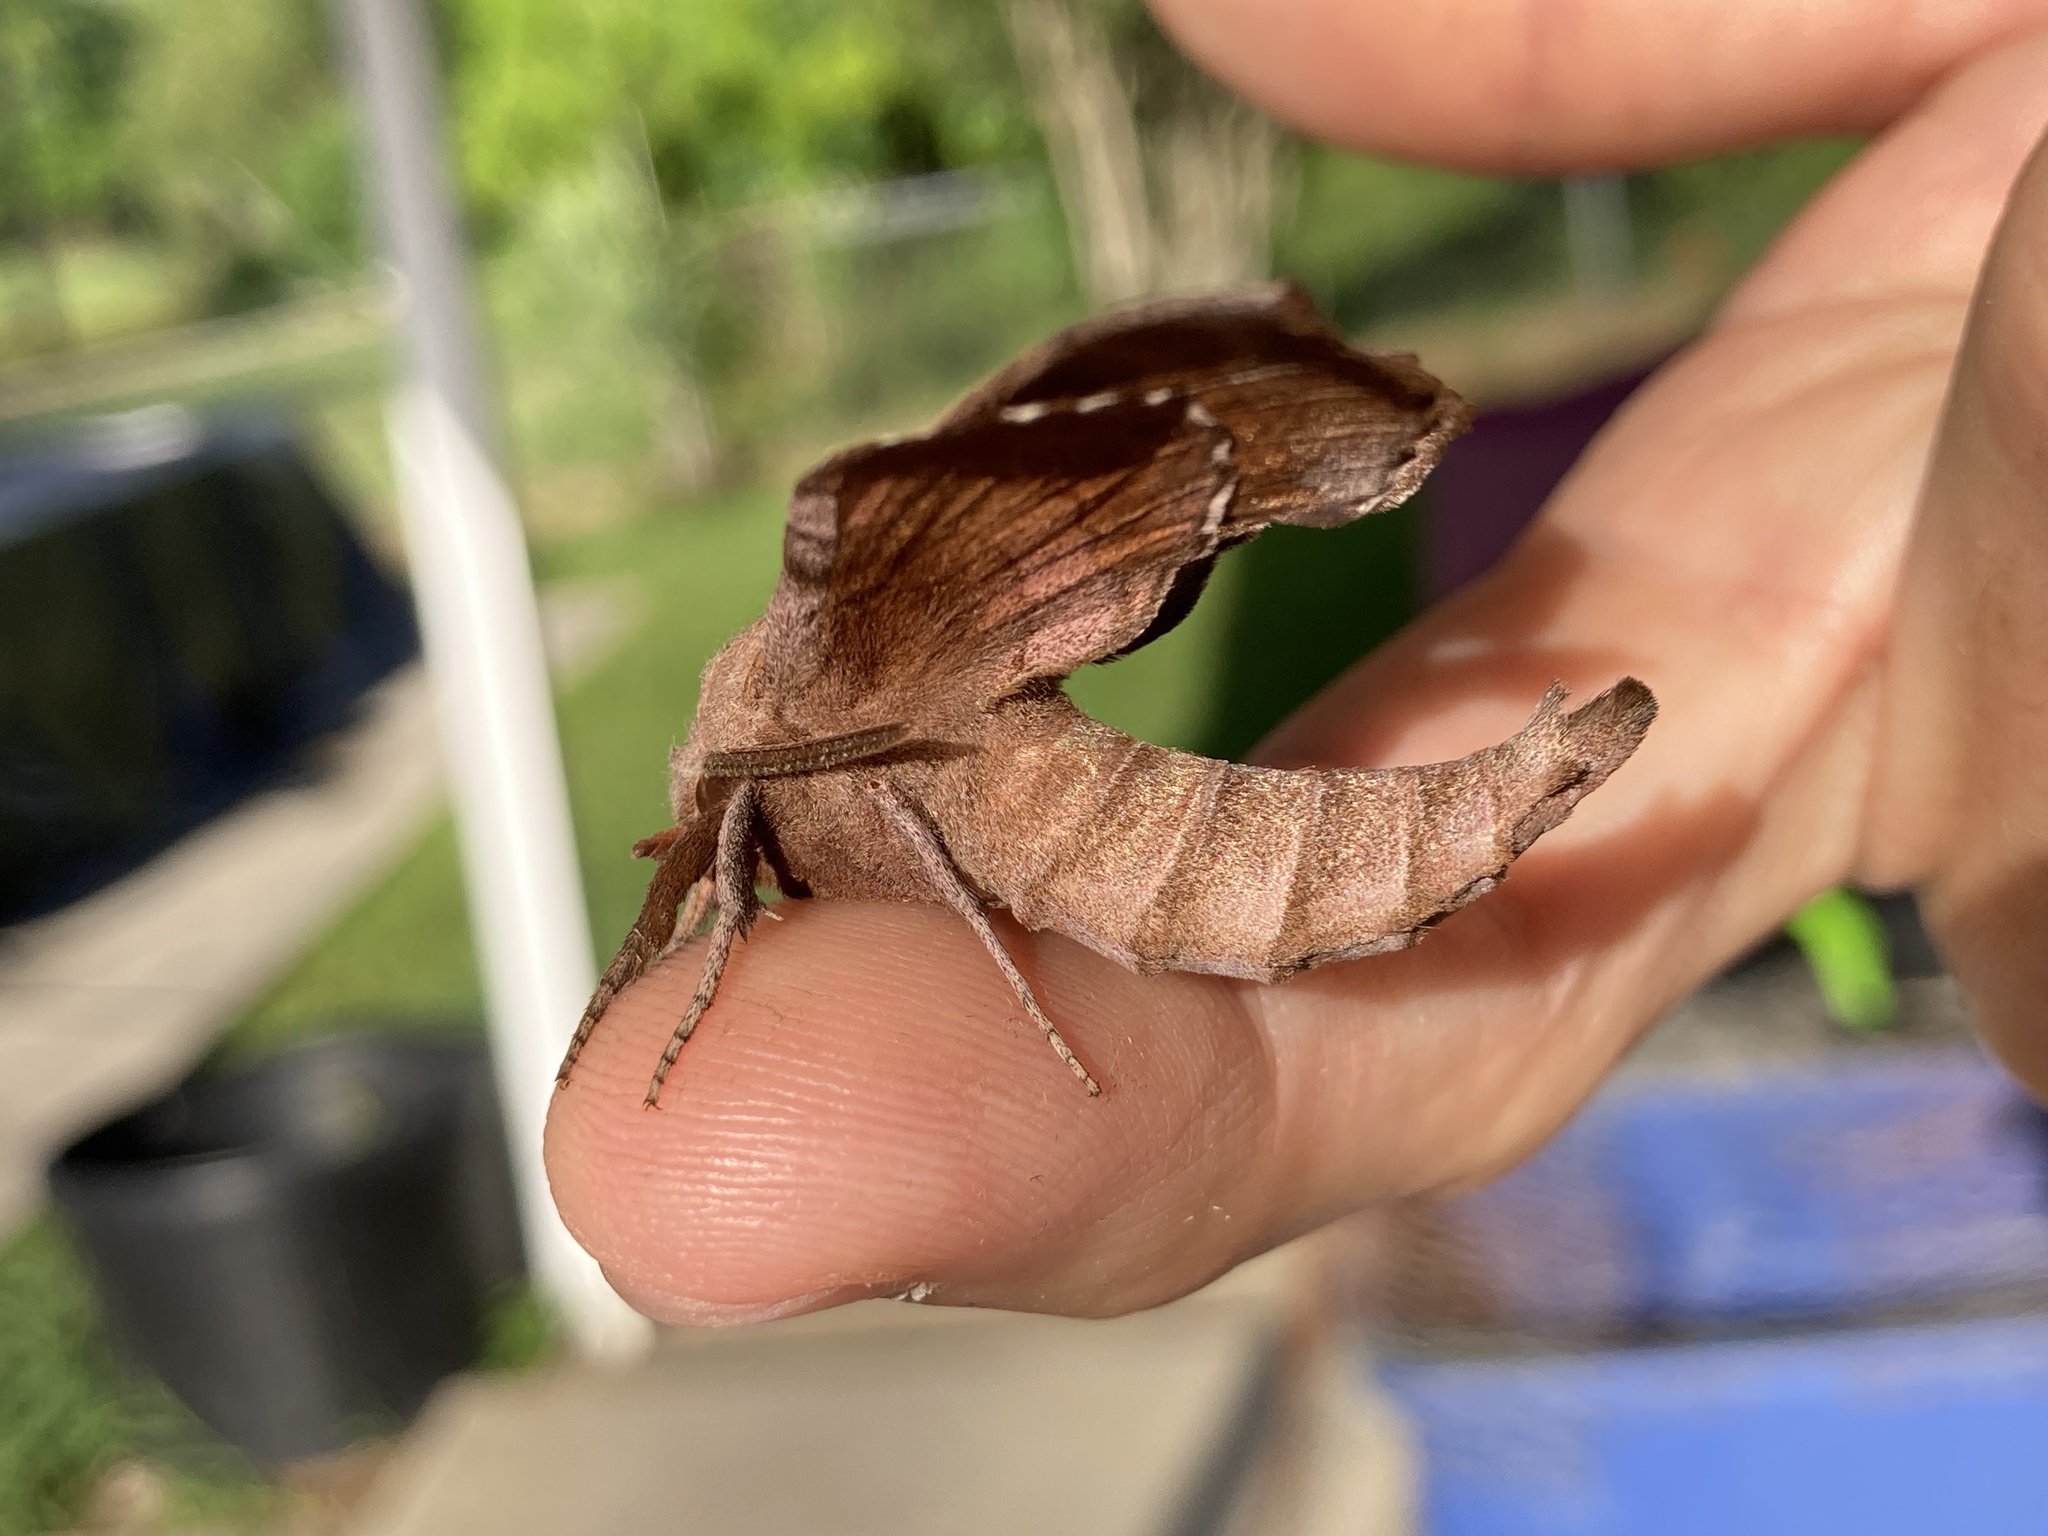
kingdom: Animalia
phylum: Arthropoda
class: Insecta
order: Lepidoptera
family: Sphingidae
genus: Amorpha
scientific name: Amorpha juglandis
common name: Walnut sphinx
